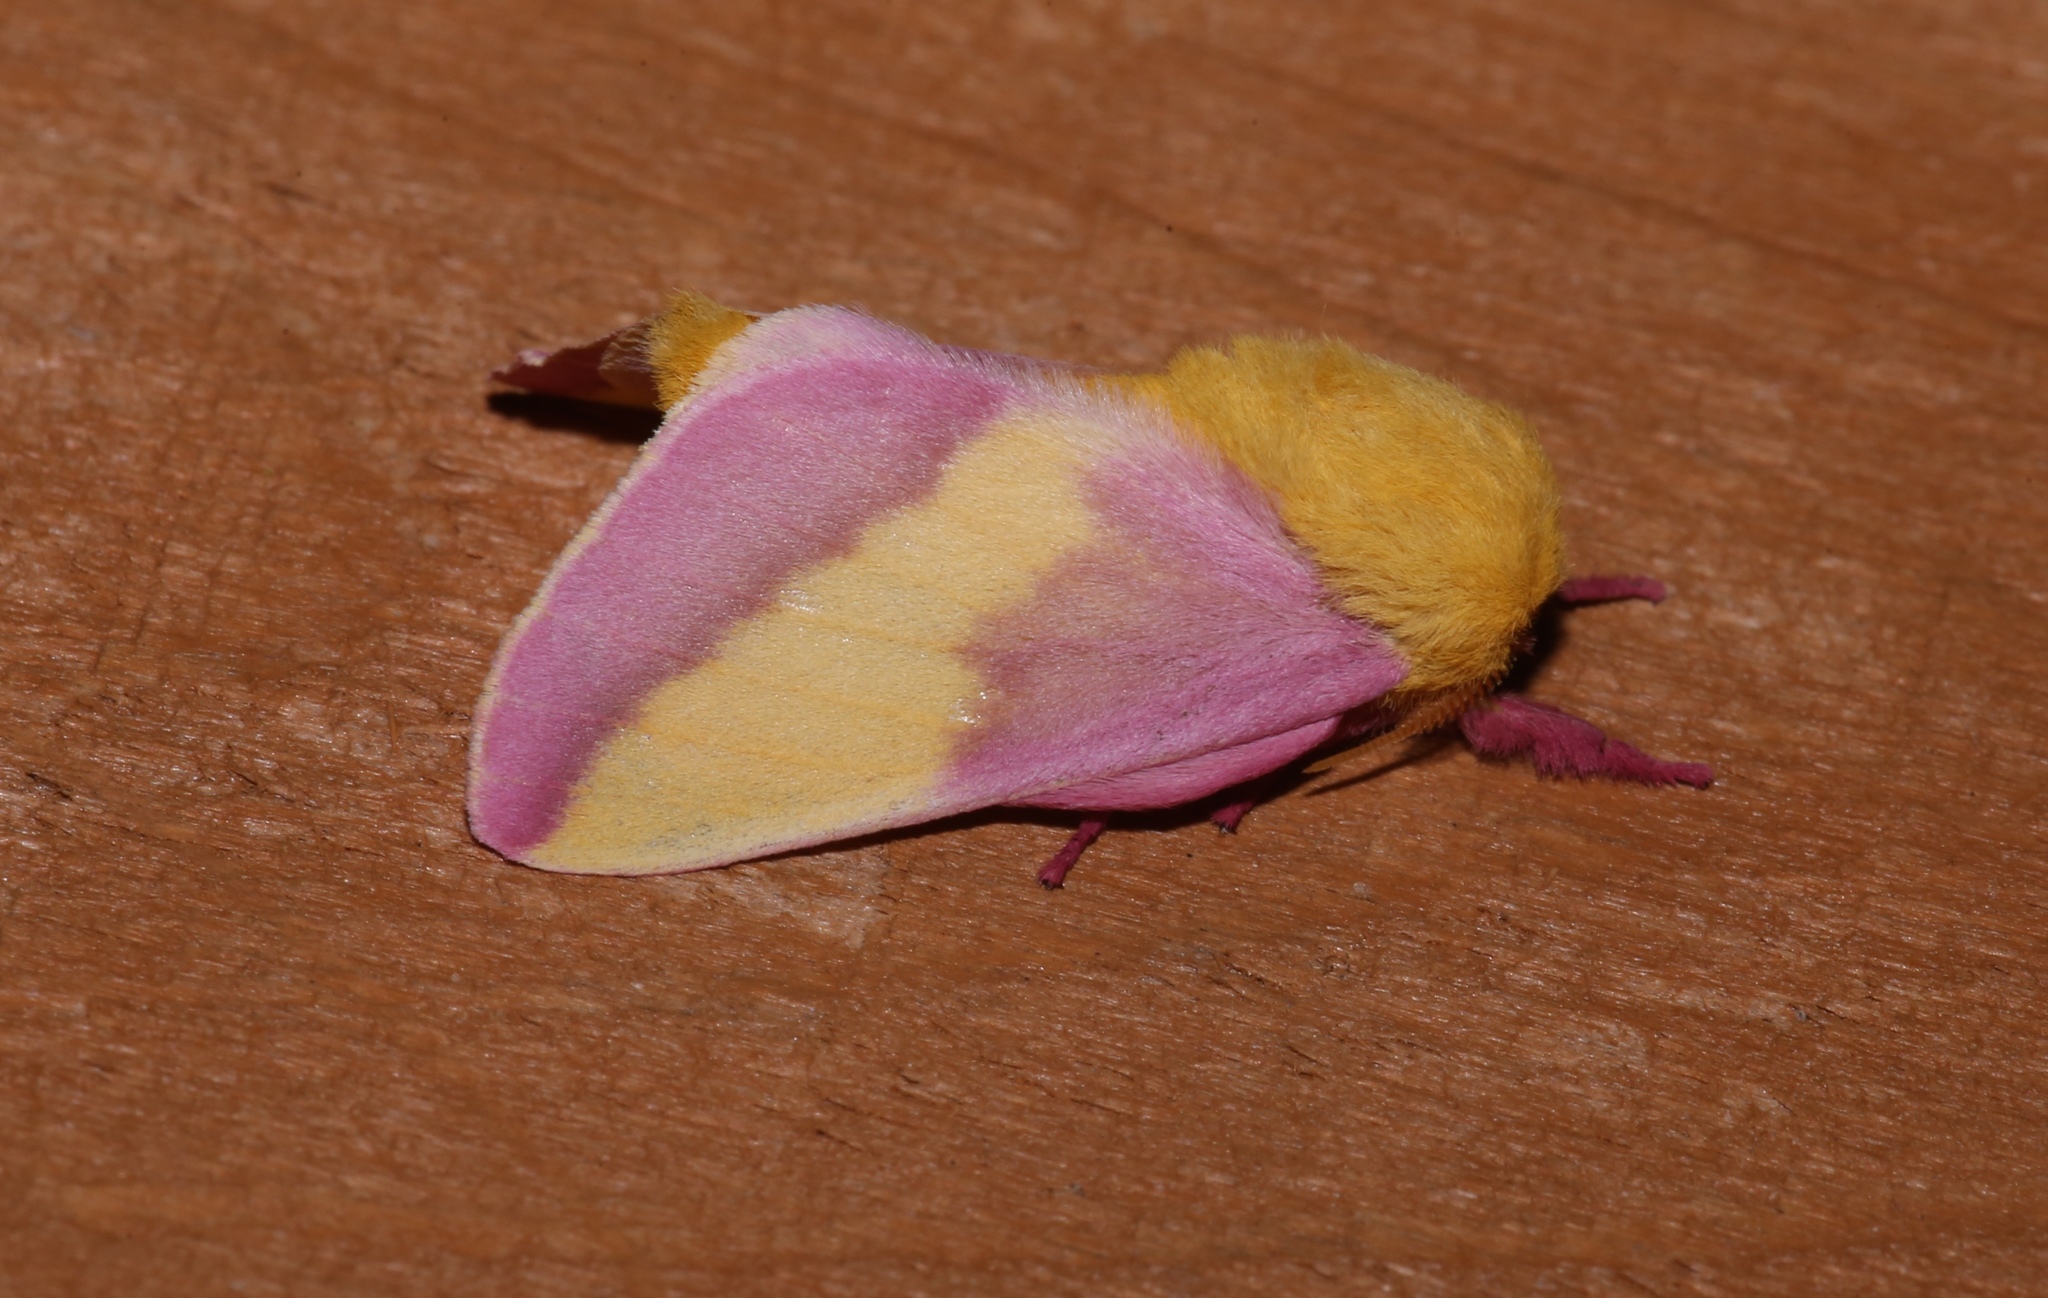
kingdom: Animalia
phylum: Arthropoda
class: Insecta
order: Lepidoptera
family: Saturniidae
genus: Dryocampa
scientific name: Dryocampa rubicunda
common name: Rosy maple moth
